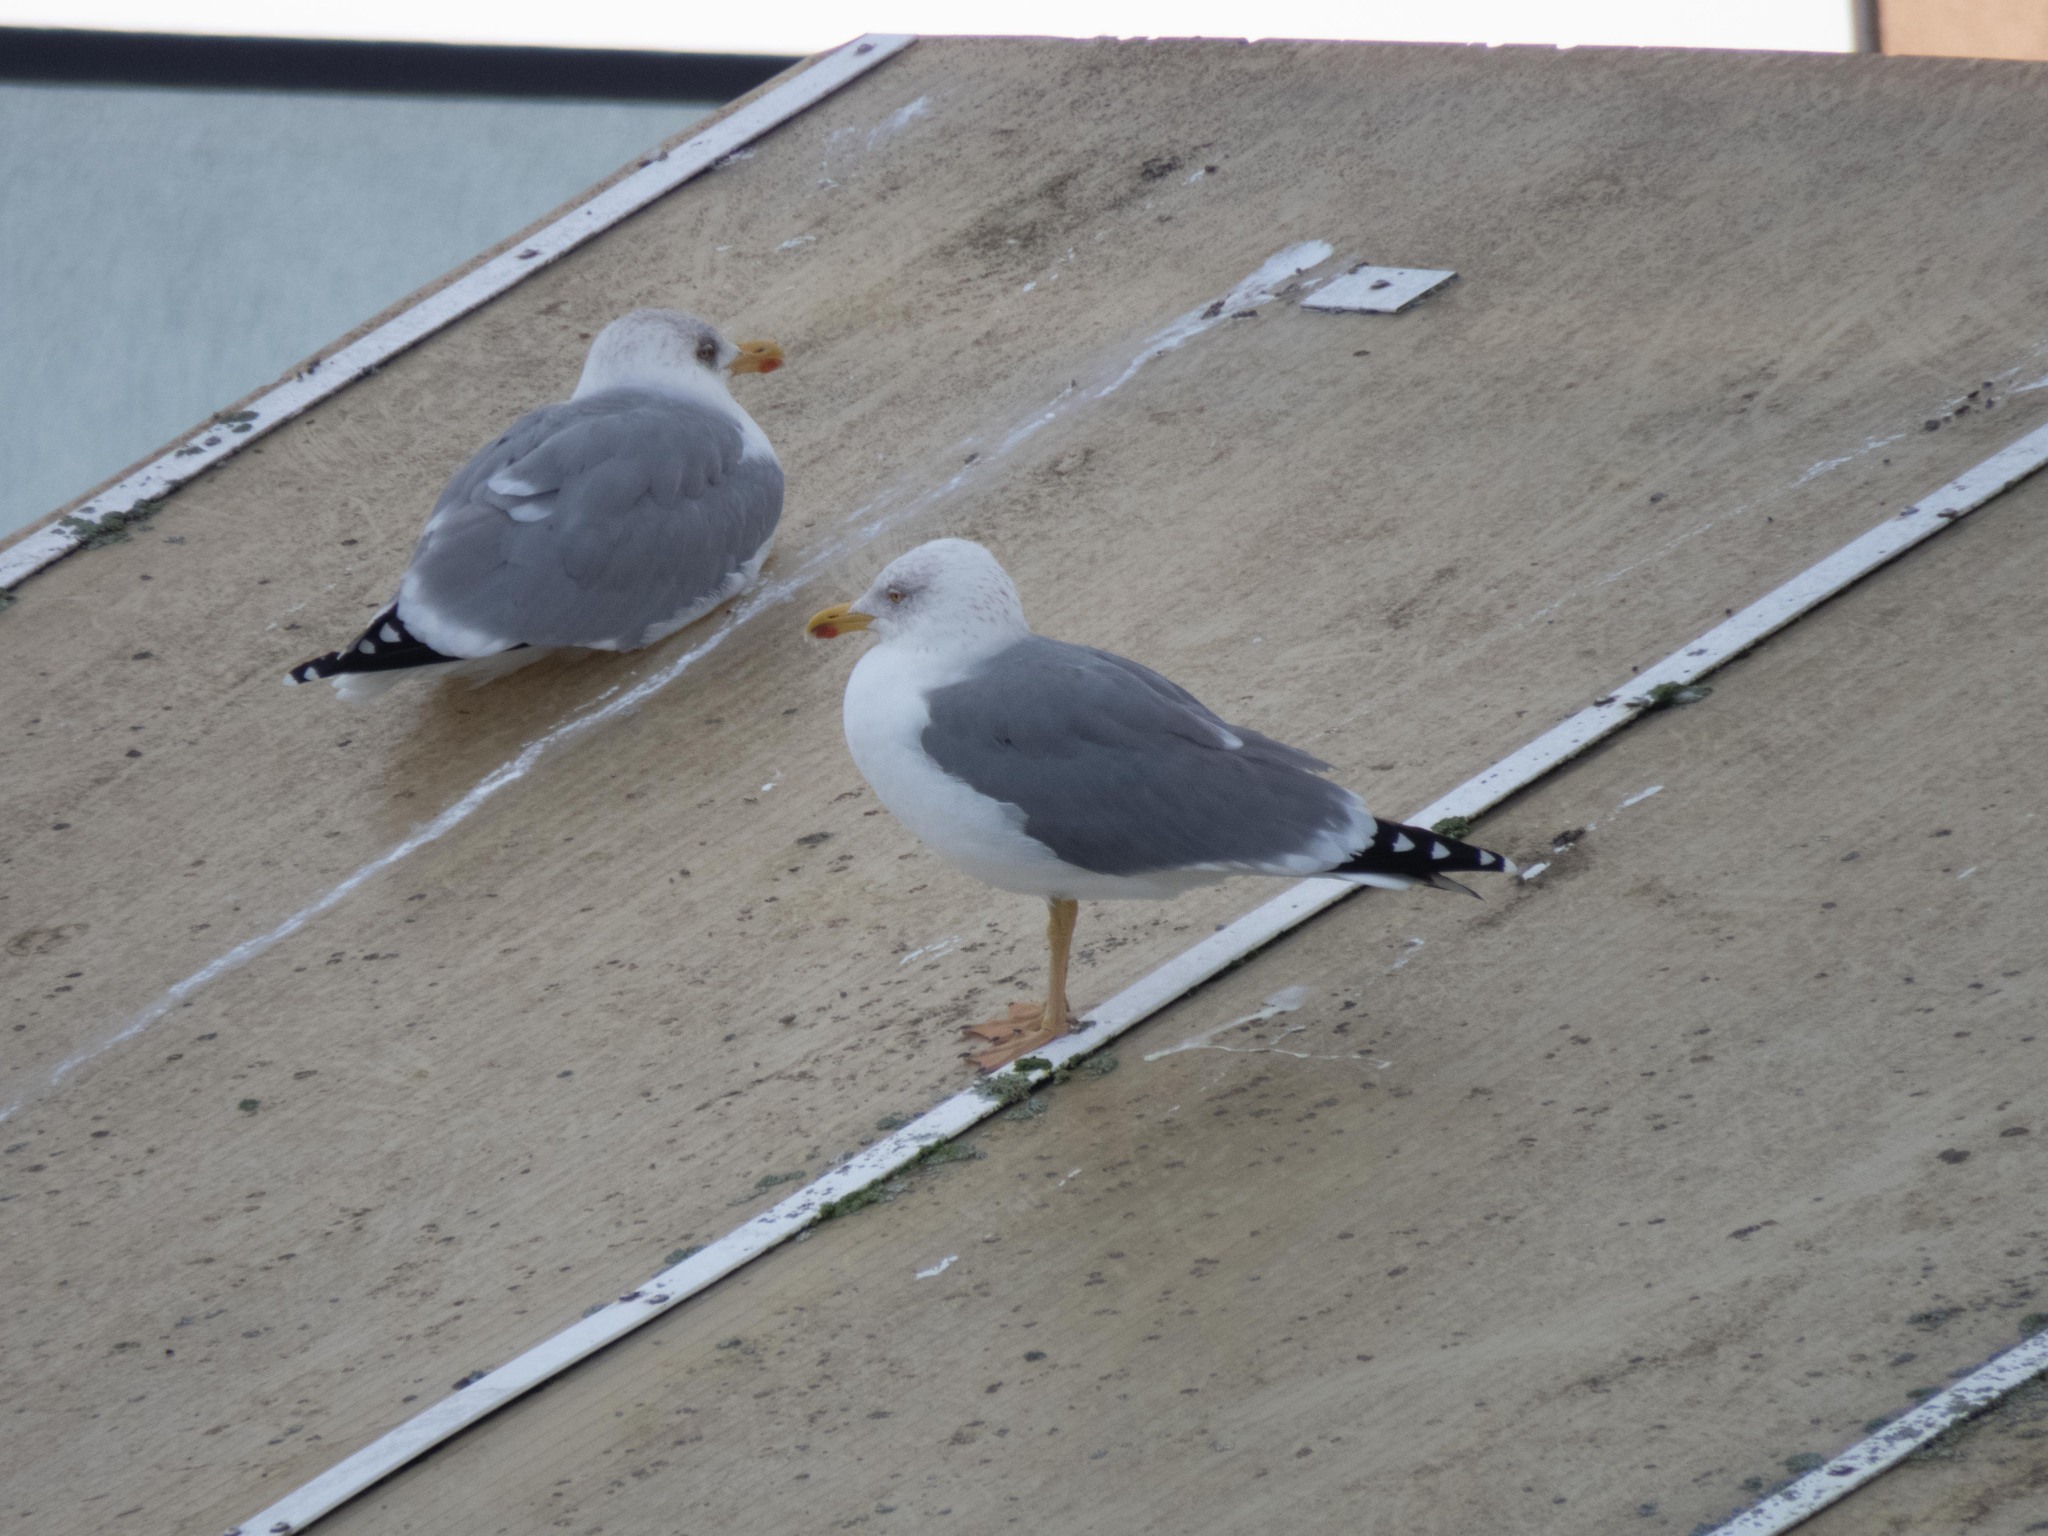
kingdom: Animalia
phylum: Chordata
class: Aves
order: Charadriiformes
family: Laridae
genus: Larus
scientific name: Larus michahellis
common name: Yellow-legged gull
